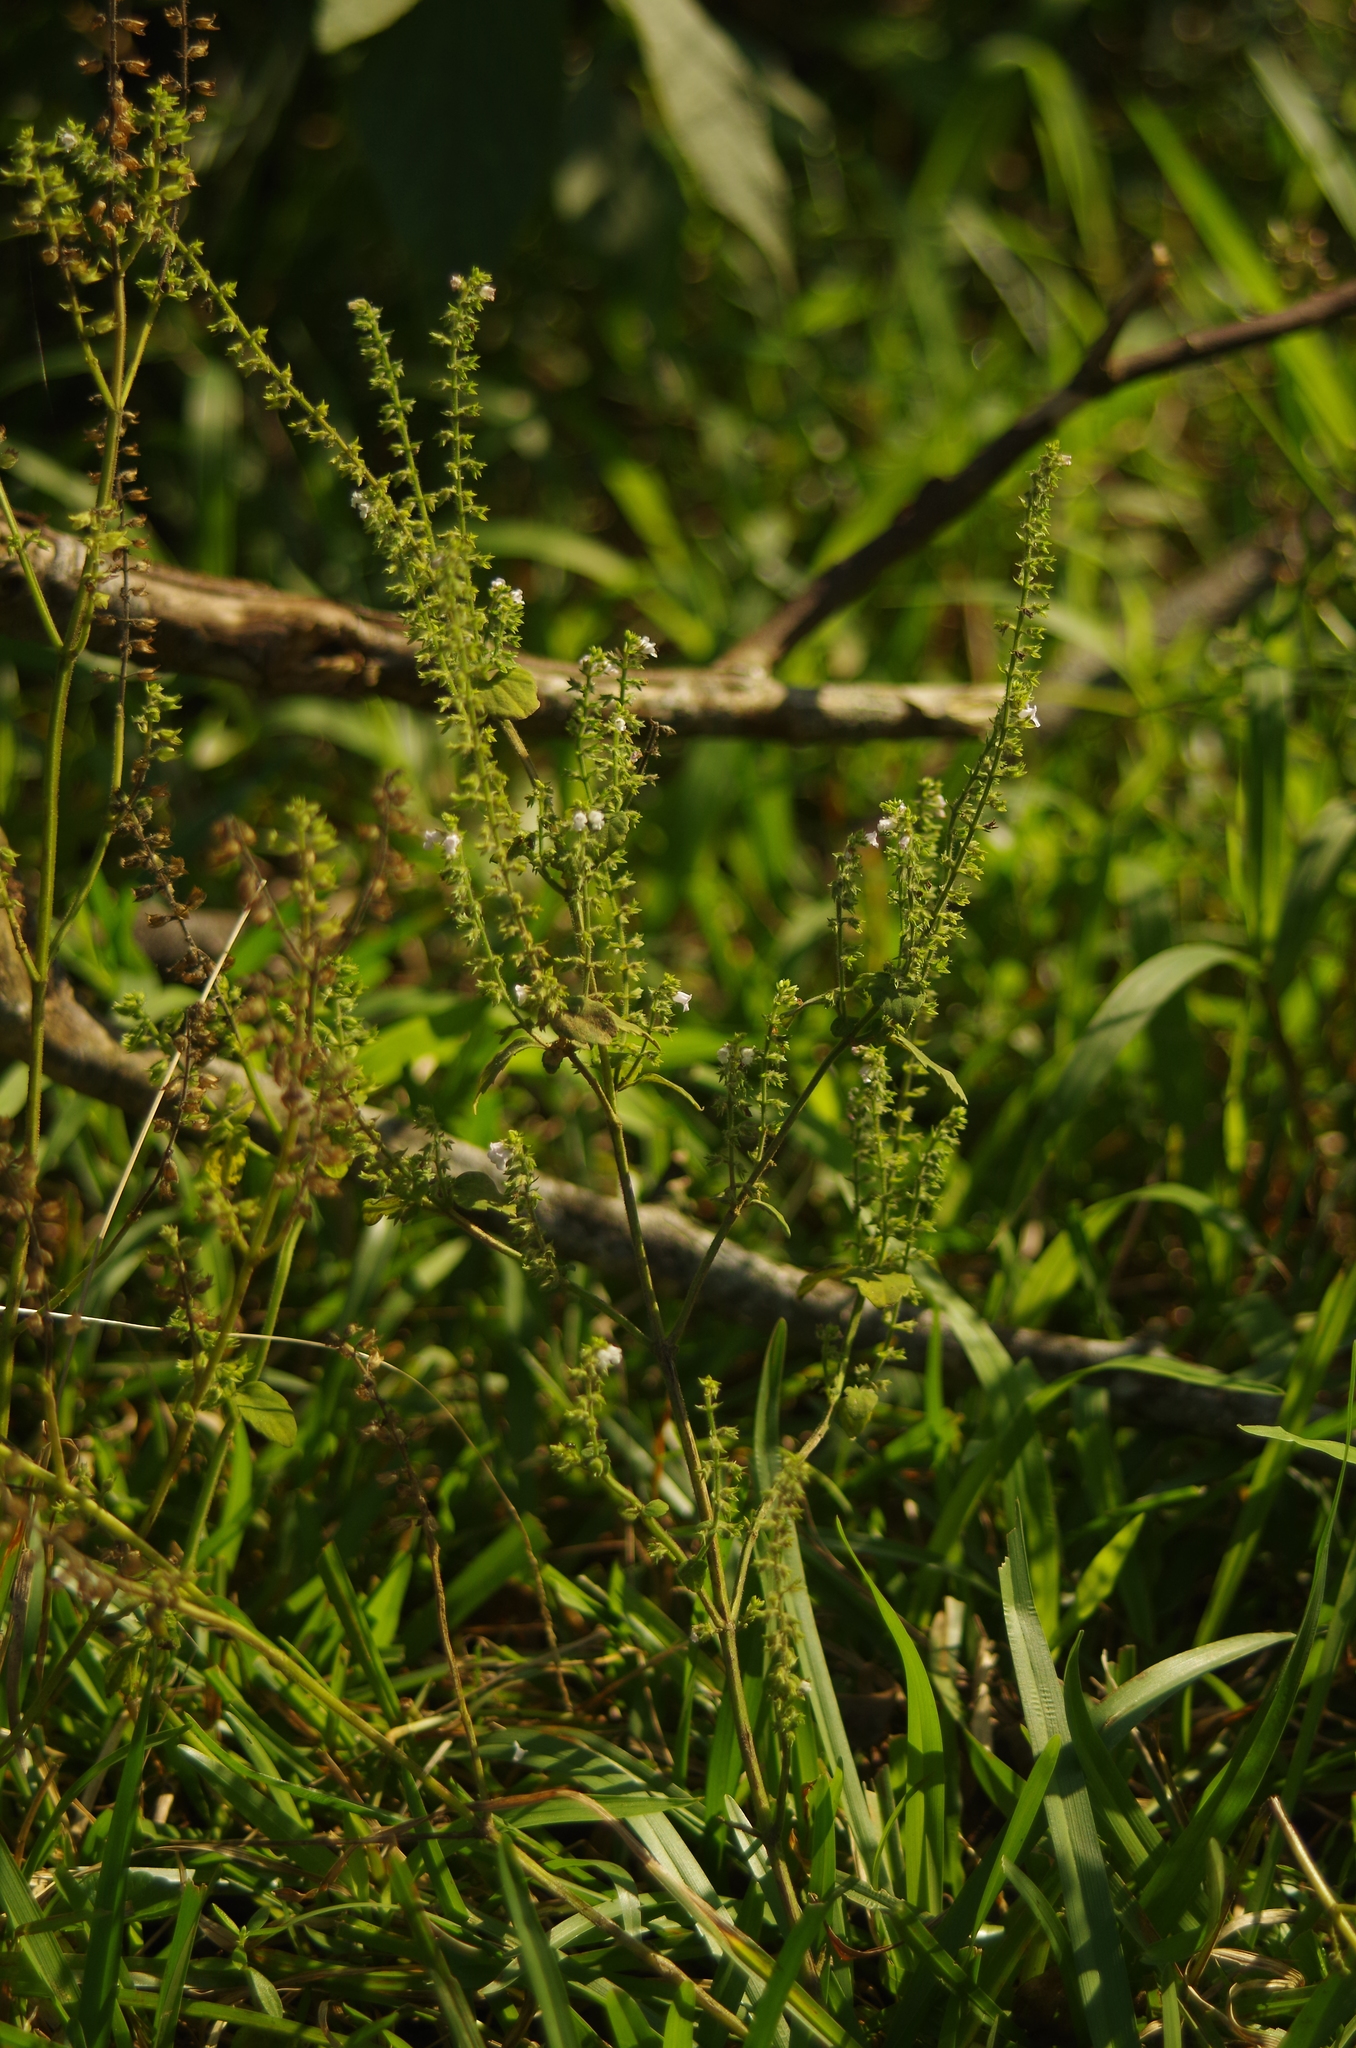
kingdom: Plantae
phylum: Tracheophyta
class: Magnoliopsida
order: Lamiales
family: Lamiaceae
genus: Mosla
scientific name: Mosla scabra
